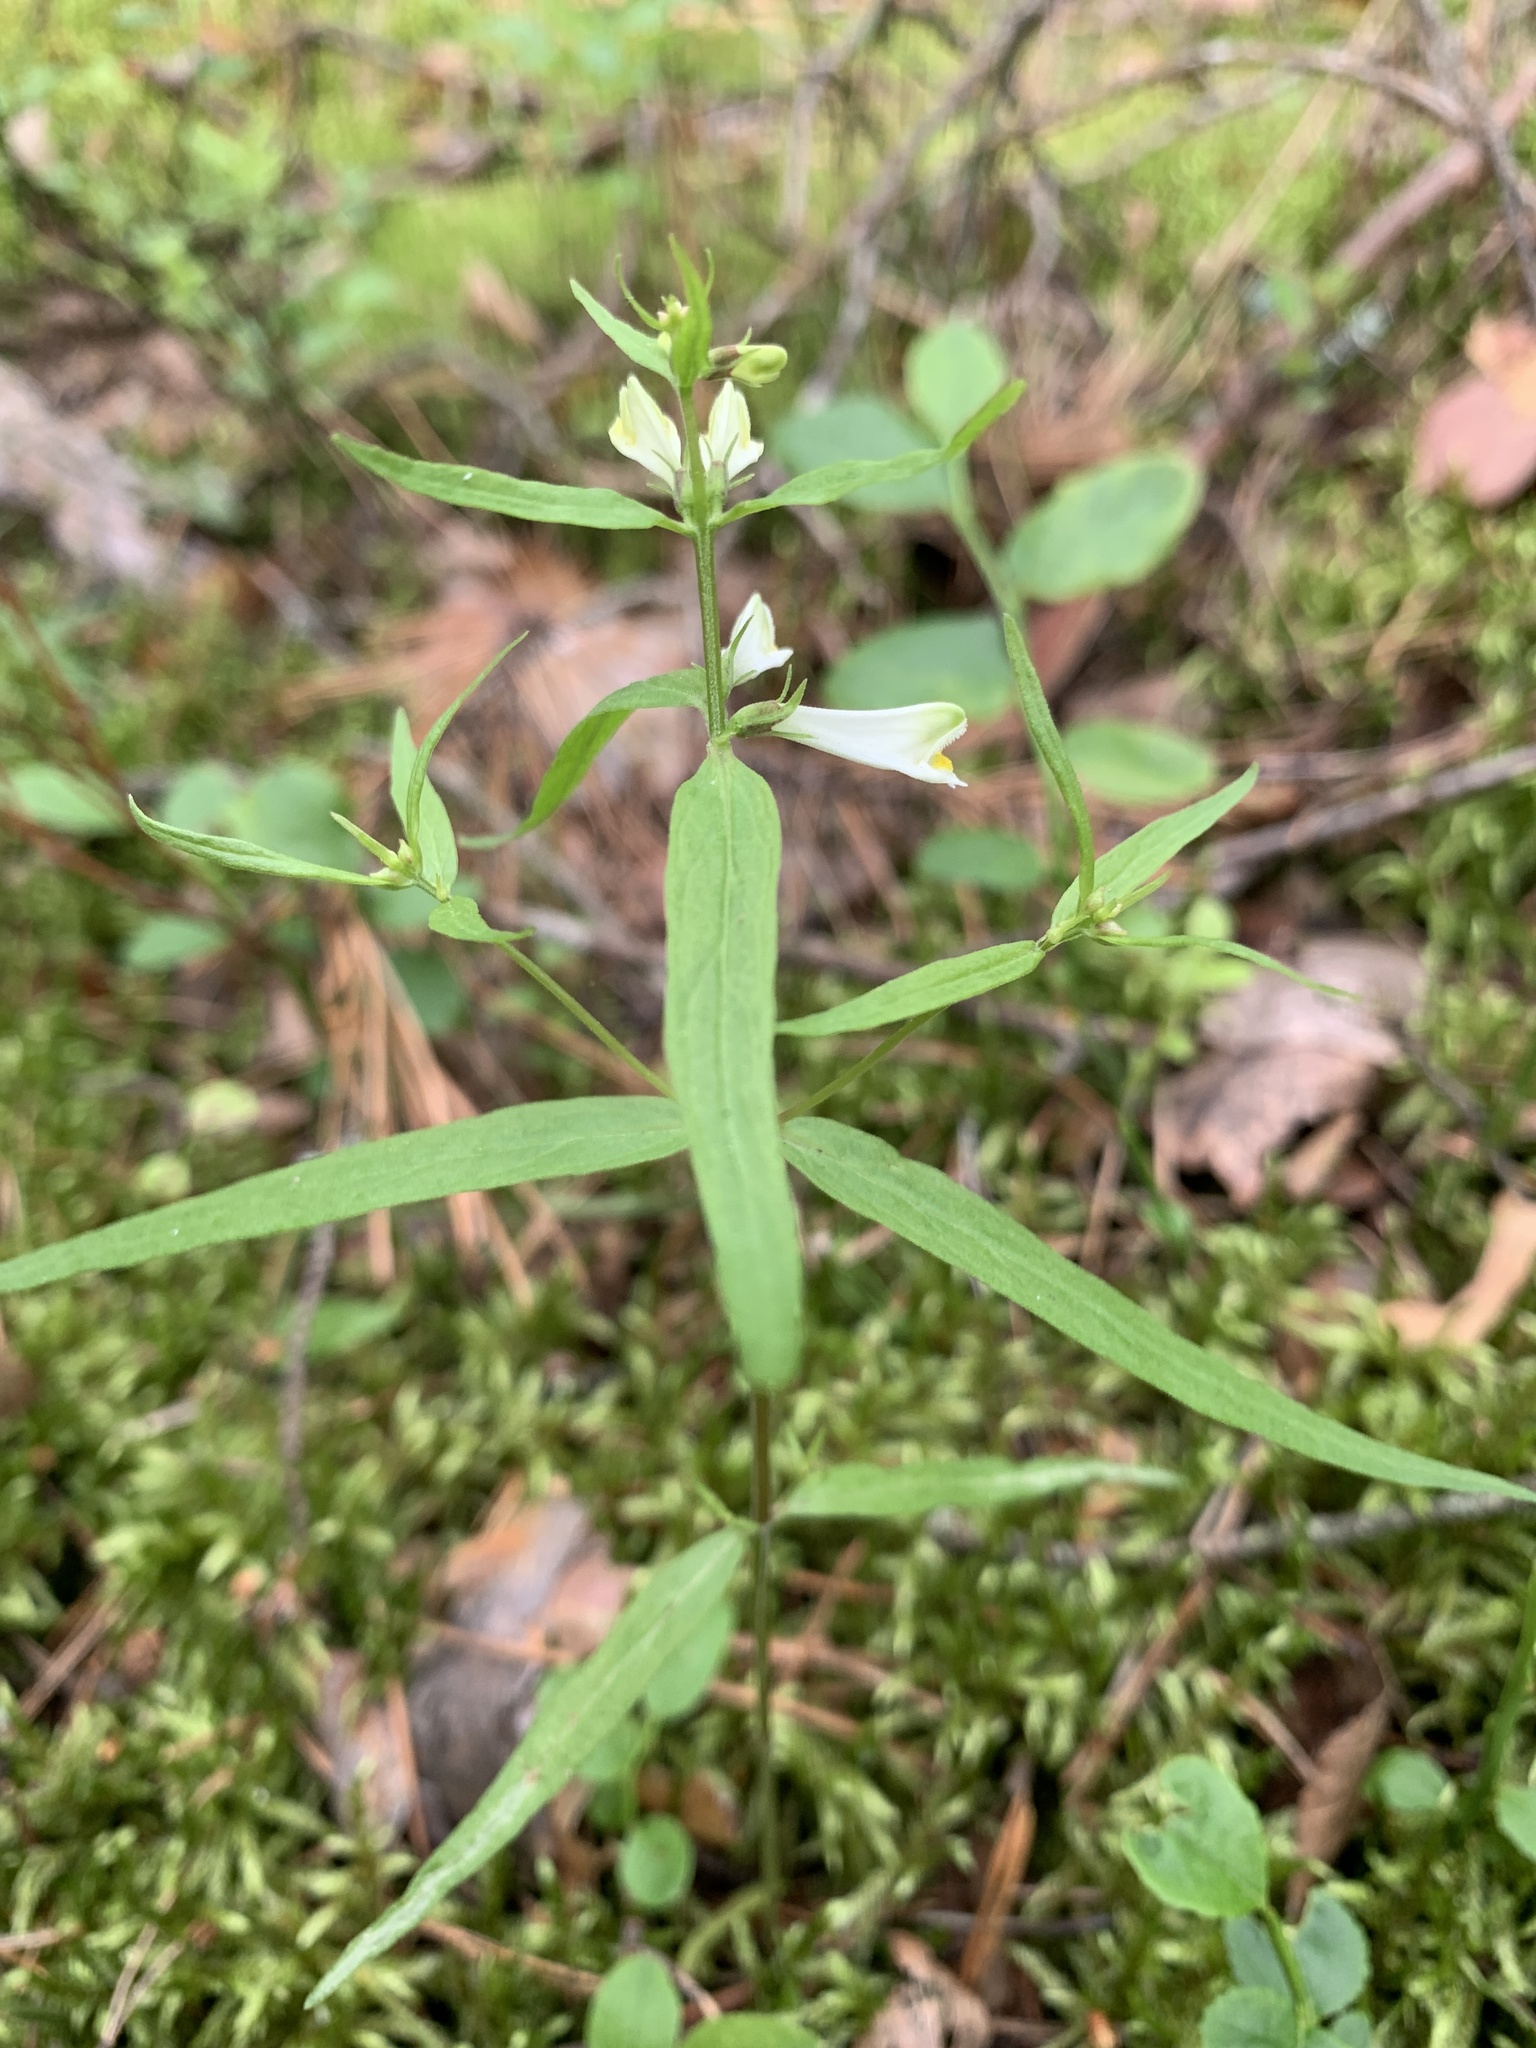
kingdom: Plantae
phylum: Tracheophyta
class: Magnoliopsida
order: Lamiales
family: Orobanchaceae
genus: Melampyrum
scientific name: Melampyrum pratense
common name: Common cow-wheat
